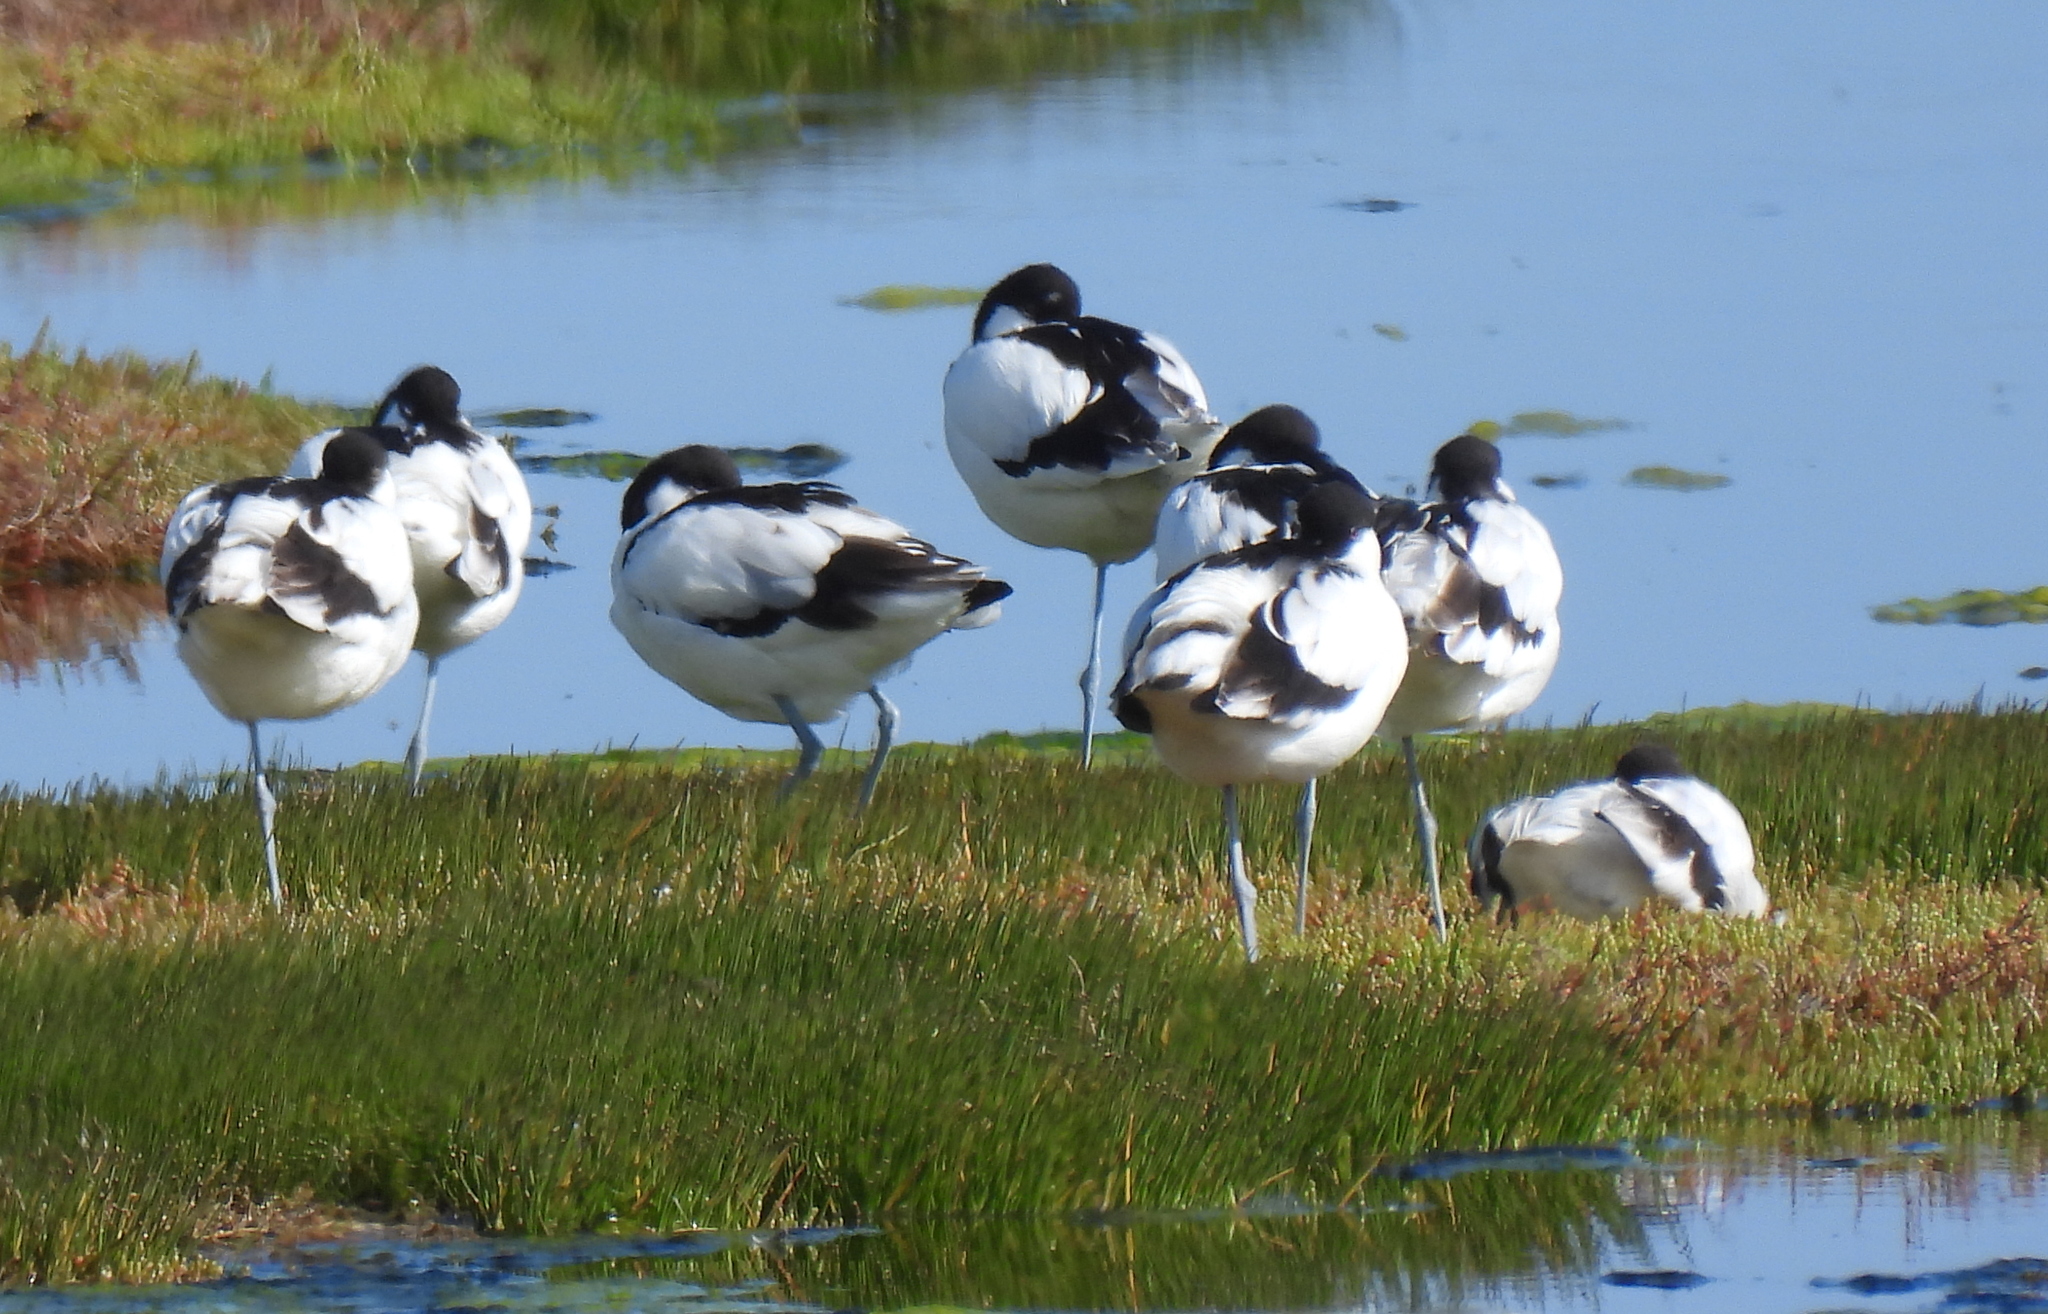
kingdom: Animalia
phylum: Chordata
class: Aves
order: Charadriiformes
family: Recurvirostridae
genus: Recurvirostra
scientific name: Recurvirostra avosetta
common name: Pied avocet
